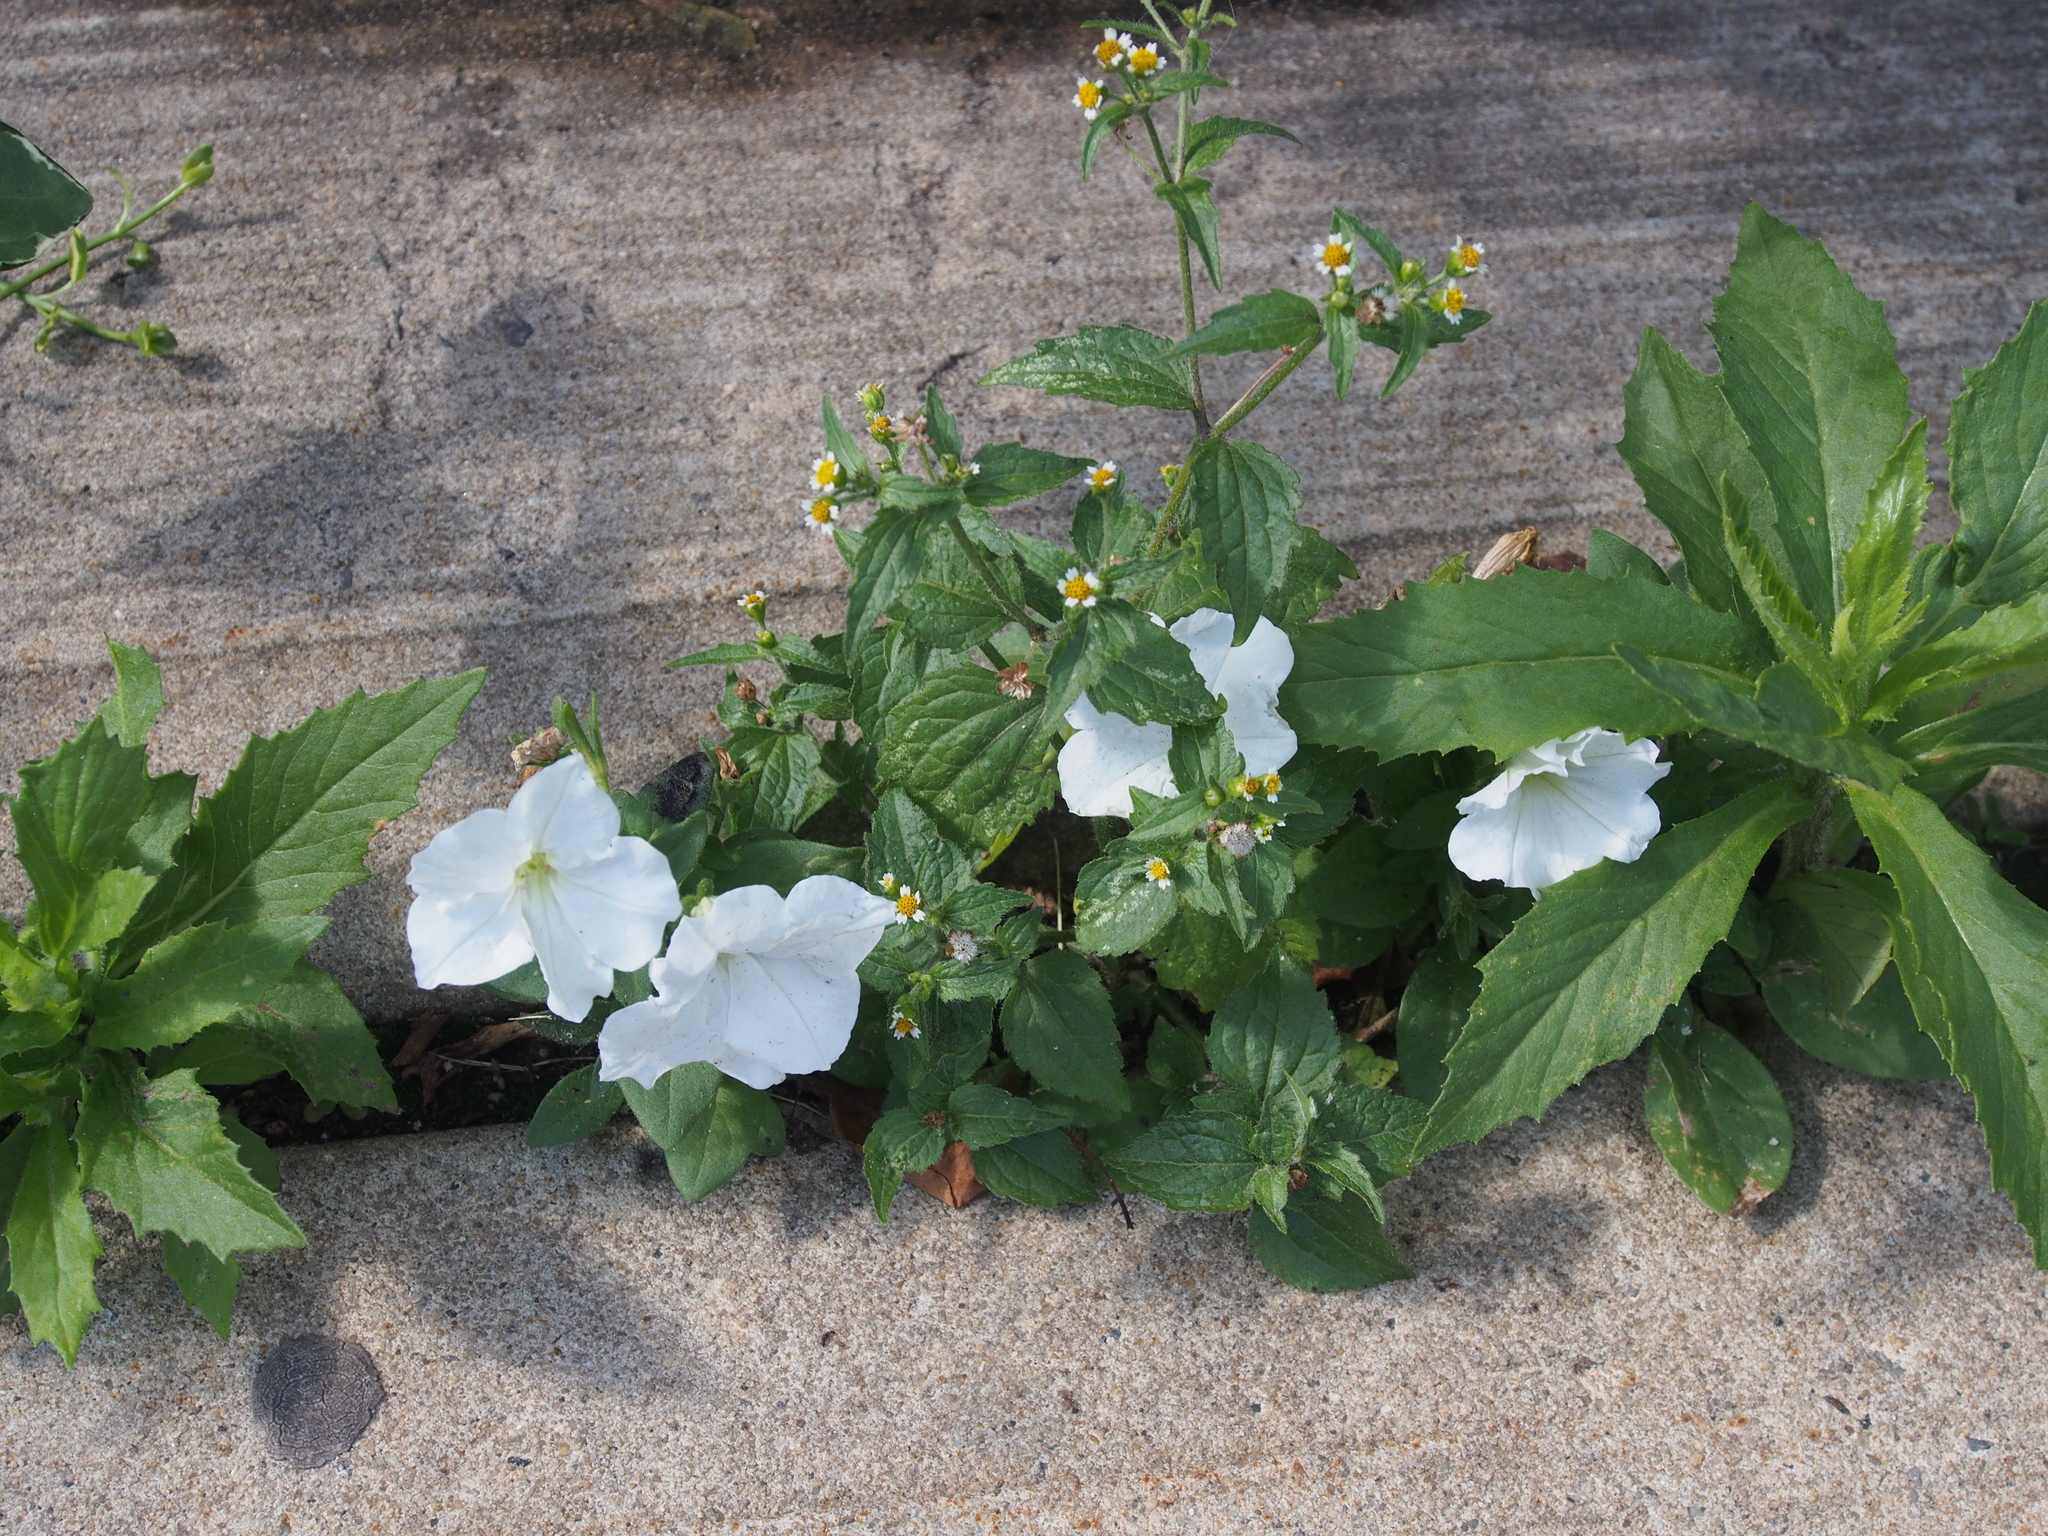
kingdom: Plantae
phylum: Tracheophyta
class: Magnoliopsida
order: Solanales
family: Solanaceae
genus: Petunia
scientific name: Petunia atkinsiana
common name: Petunia
